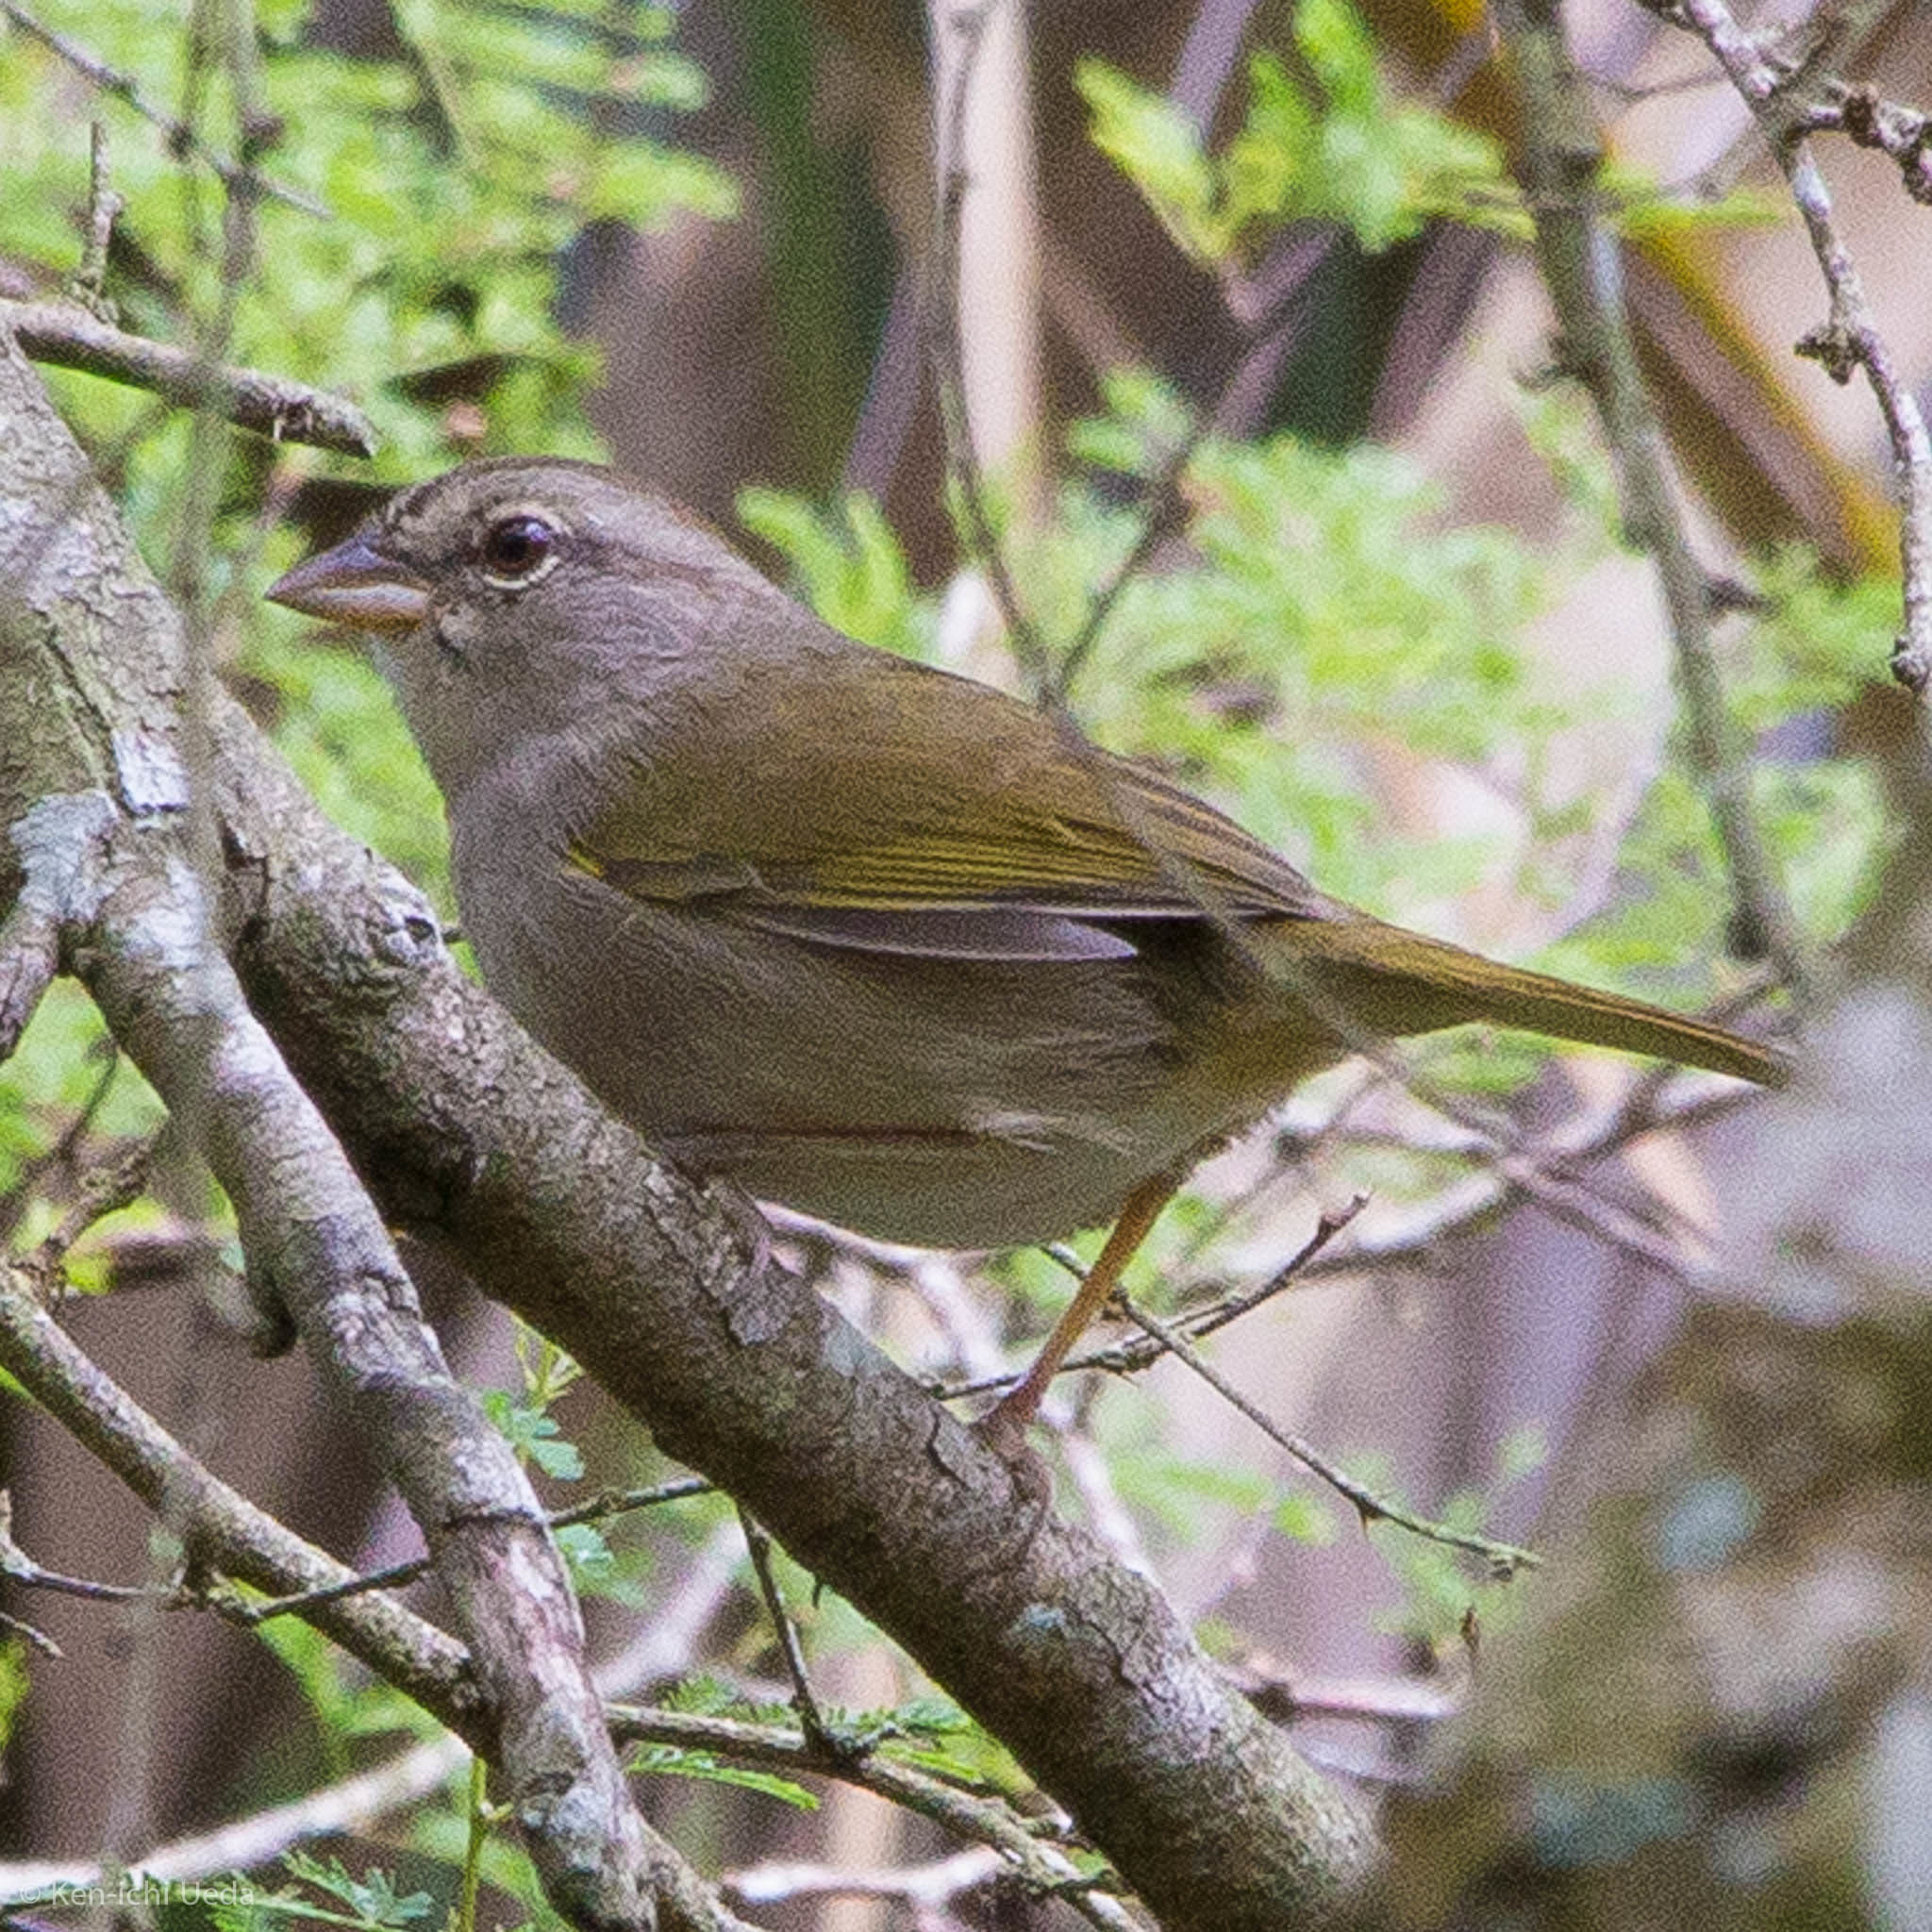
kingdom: Animalia
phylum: Chordata
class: Aves
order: Passeriformes
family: Passerellidae
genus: Arremonops
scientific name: Arremonops rufivirgatus
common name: Olive sparrow
